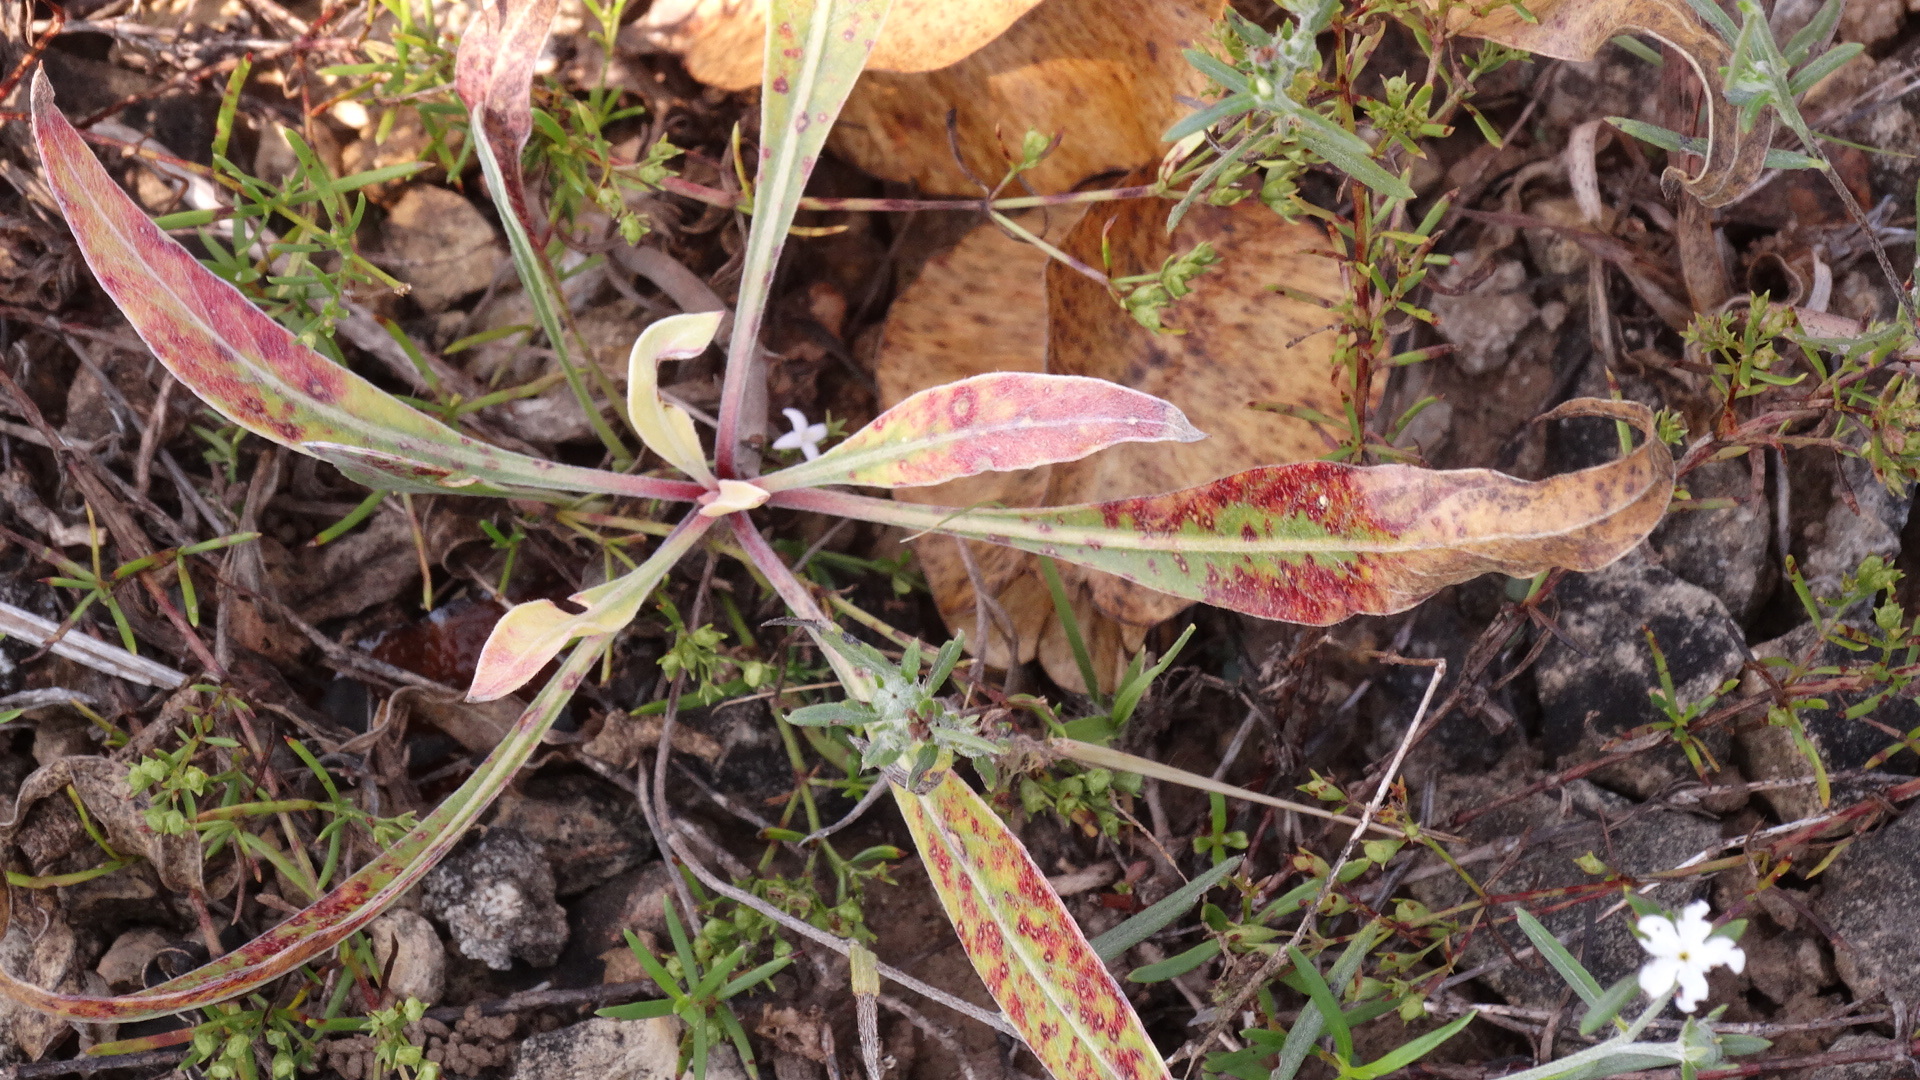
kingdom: Plantae
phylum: Tracheophyta
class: Magnoliopsida
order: Myrtales
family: Onagraceae
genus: Oenothera
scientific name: Oenothera macrocarpa
